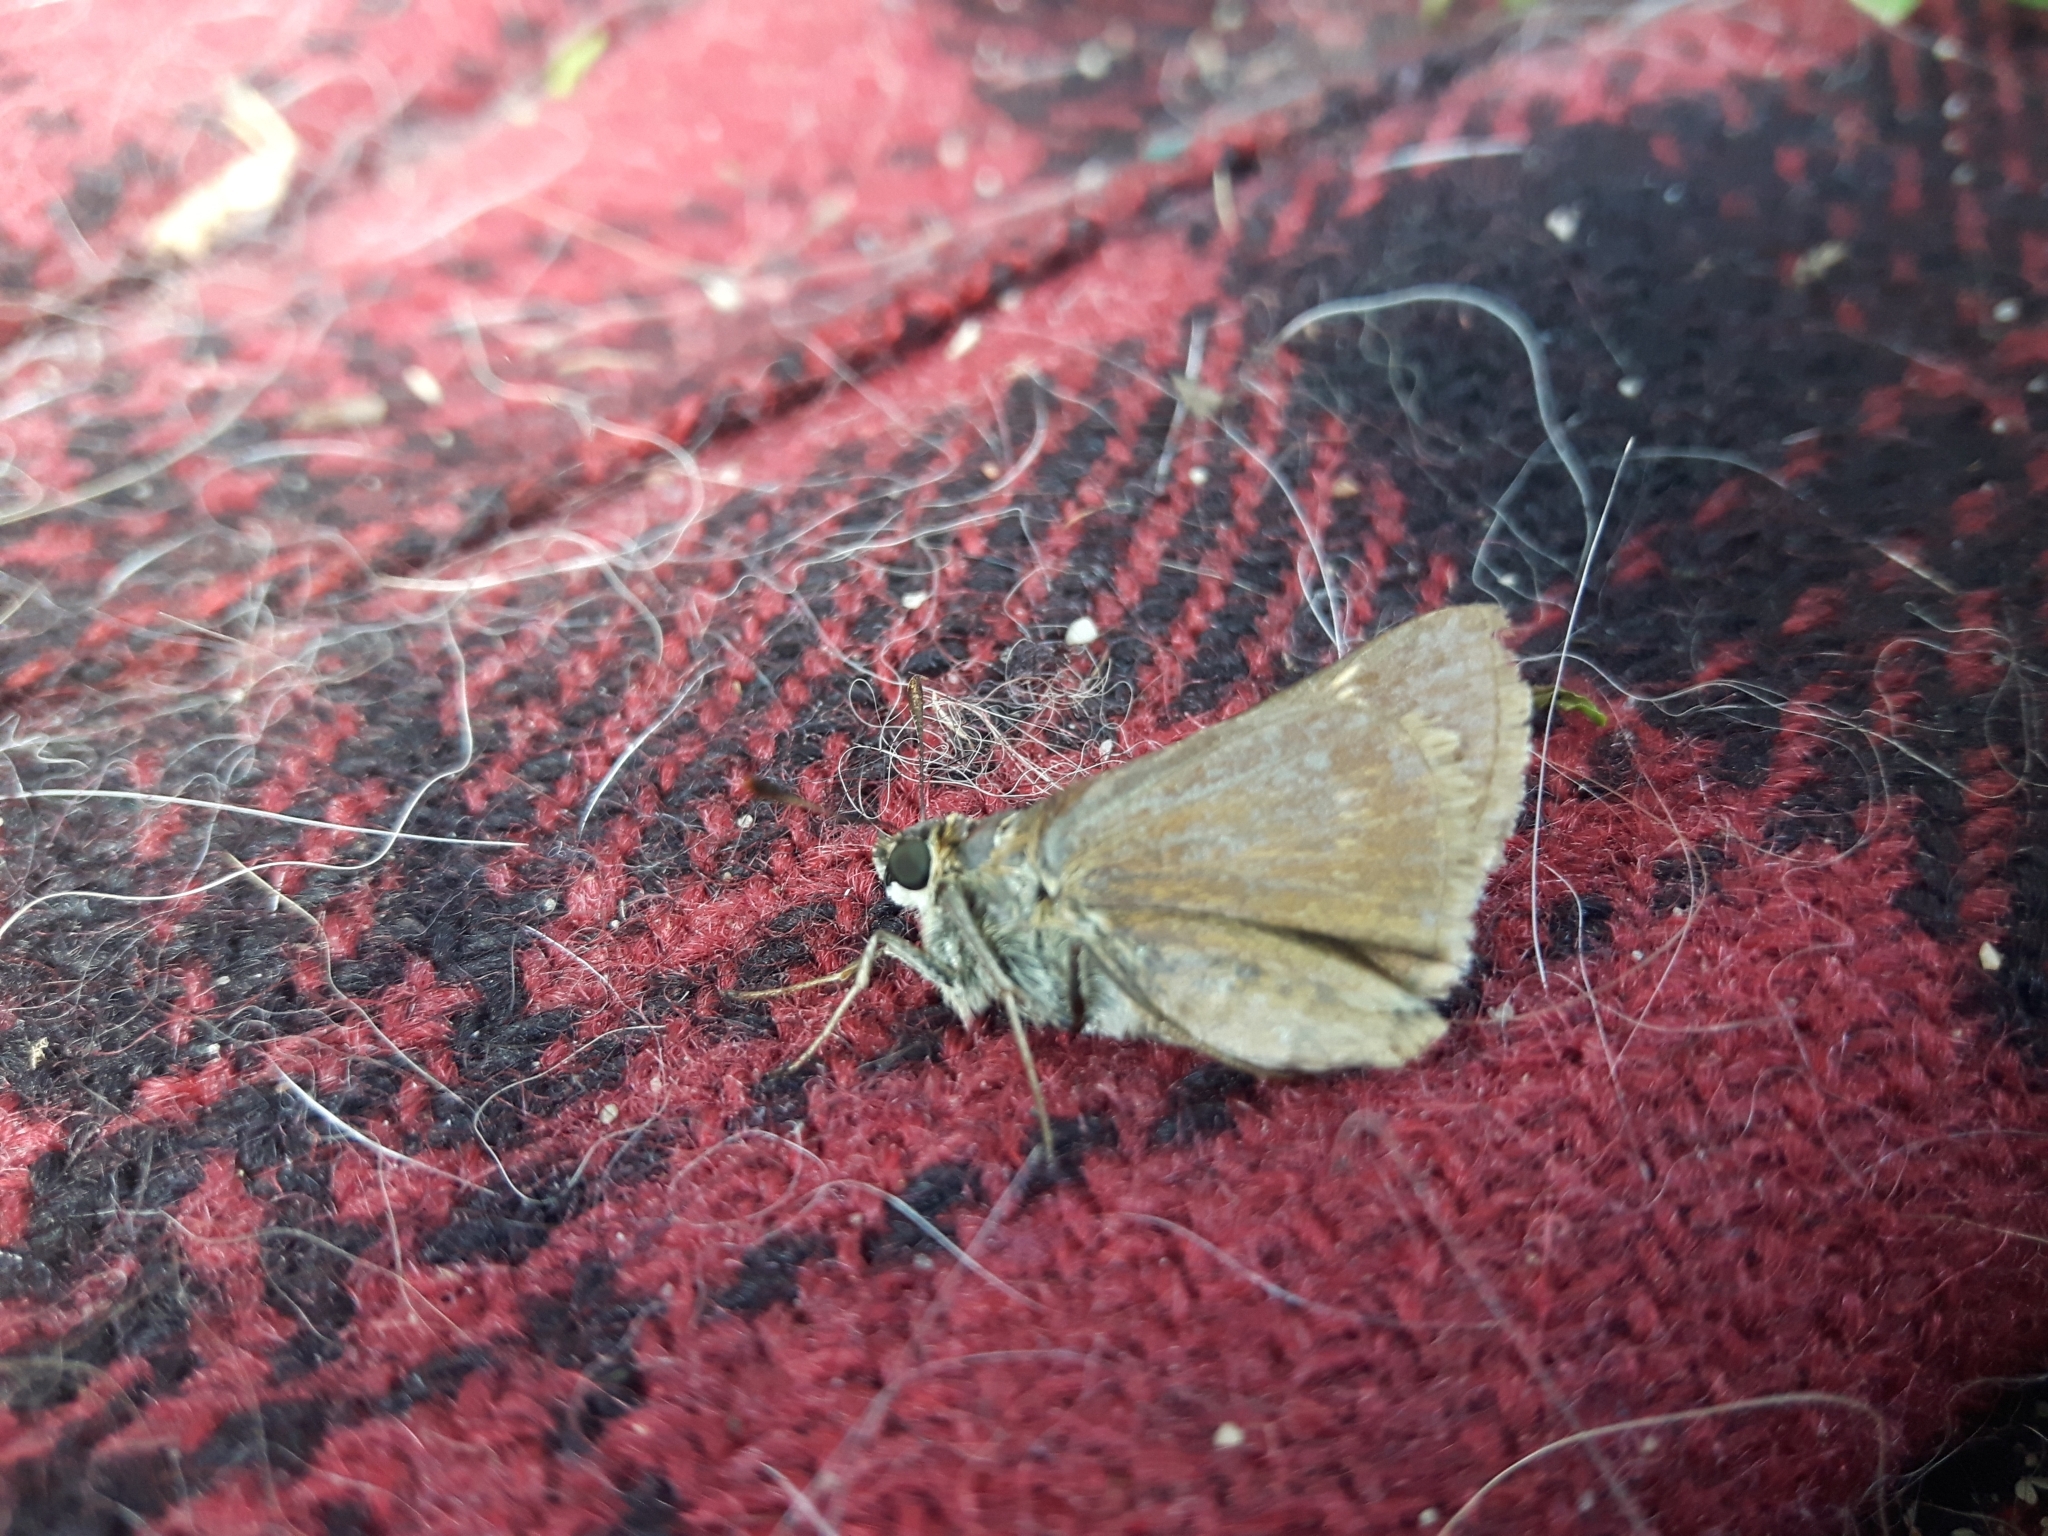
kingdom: Animalia
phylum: Arthropoda
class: Insecta
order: Lepidoptera
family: Hesperiidae
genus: Euphyes
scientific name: Euphyes vestris
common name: Dun skipper
